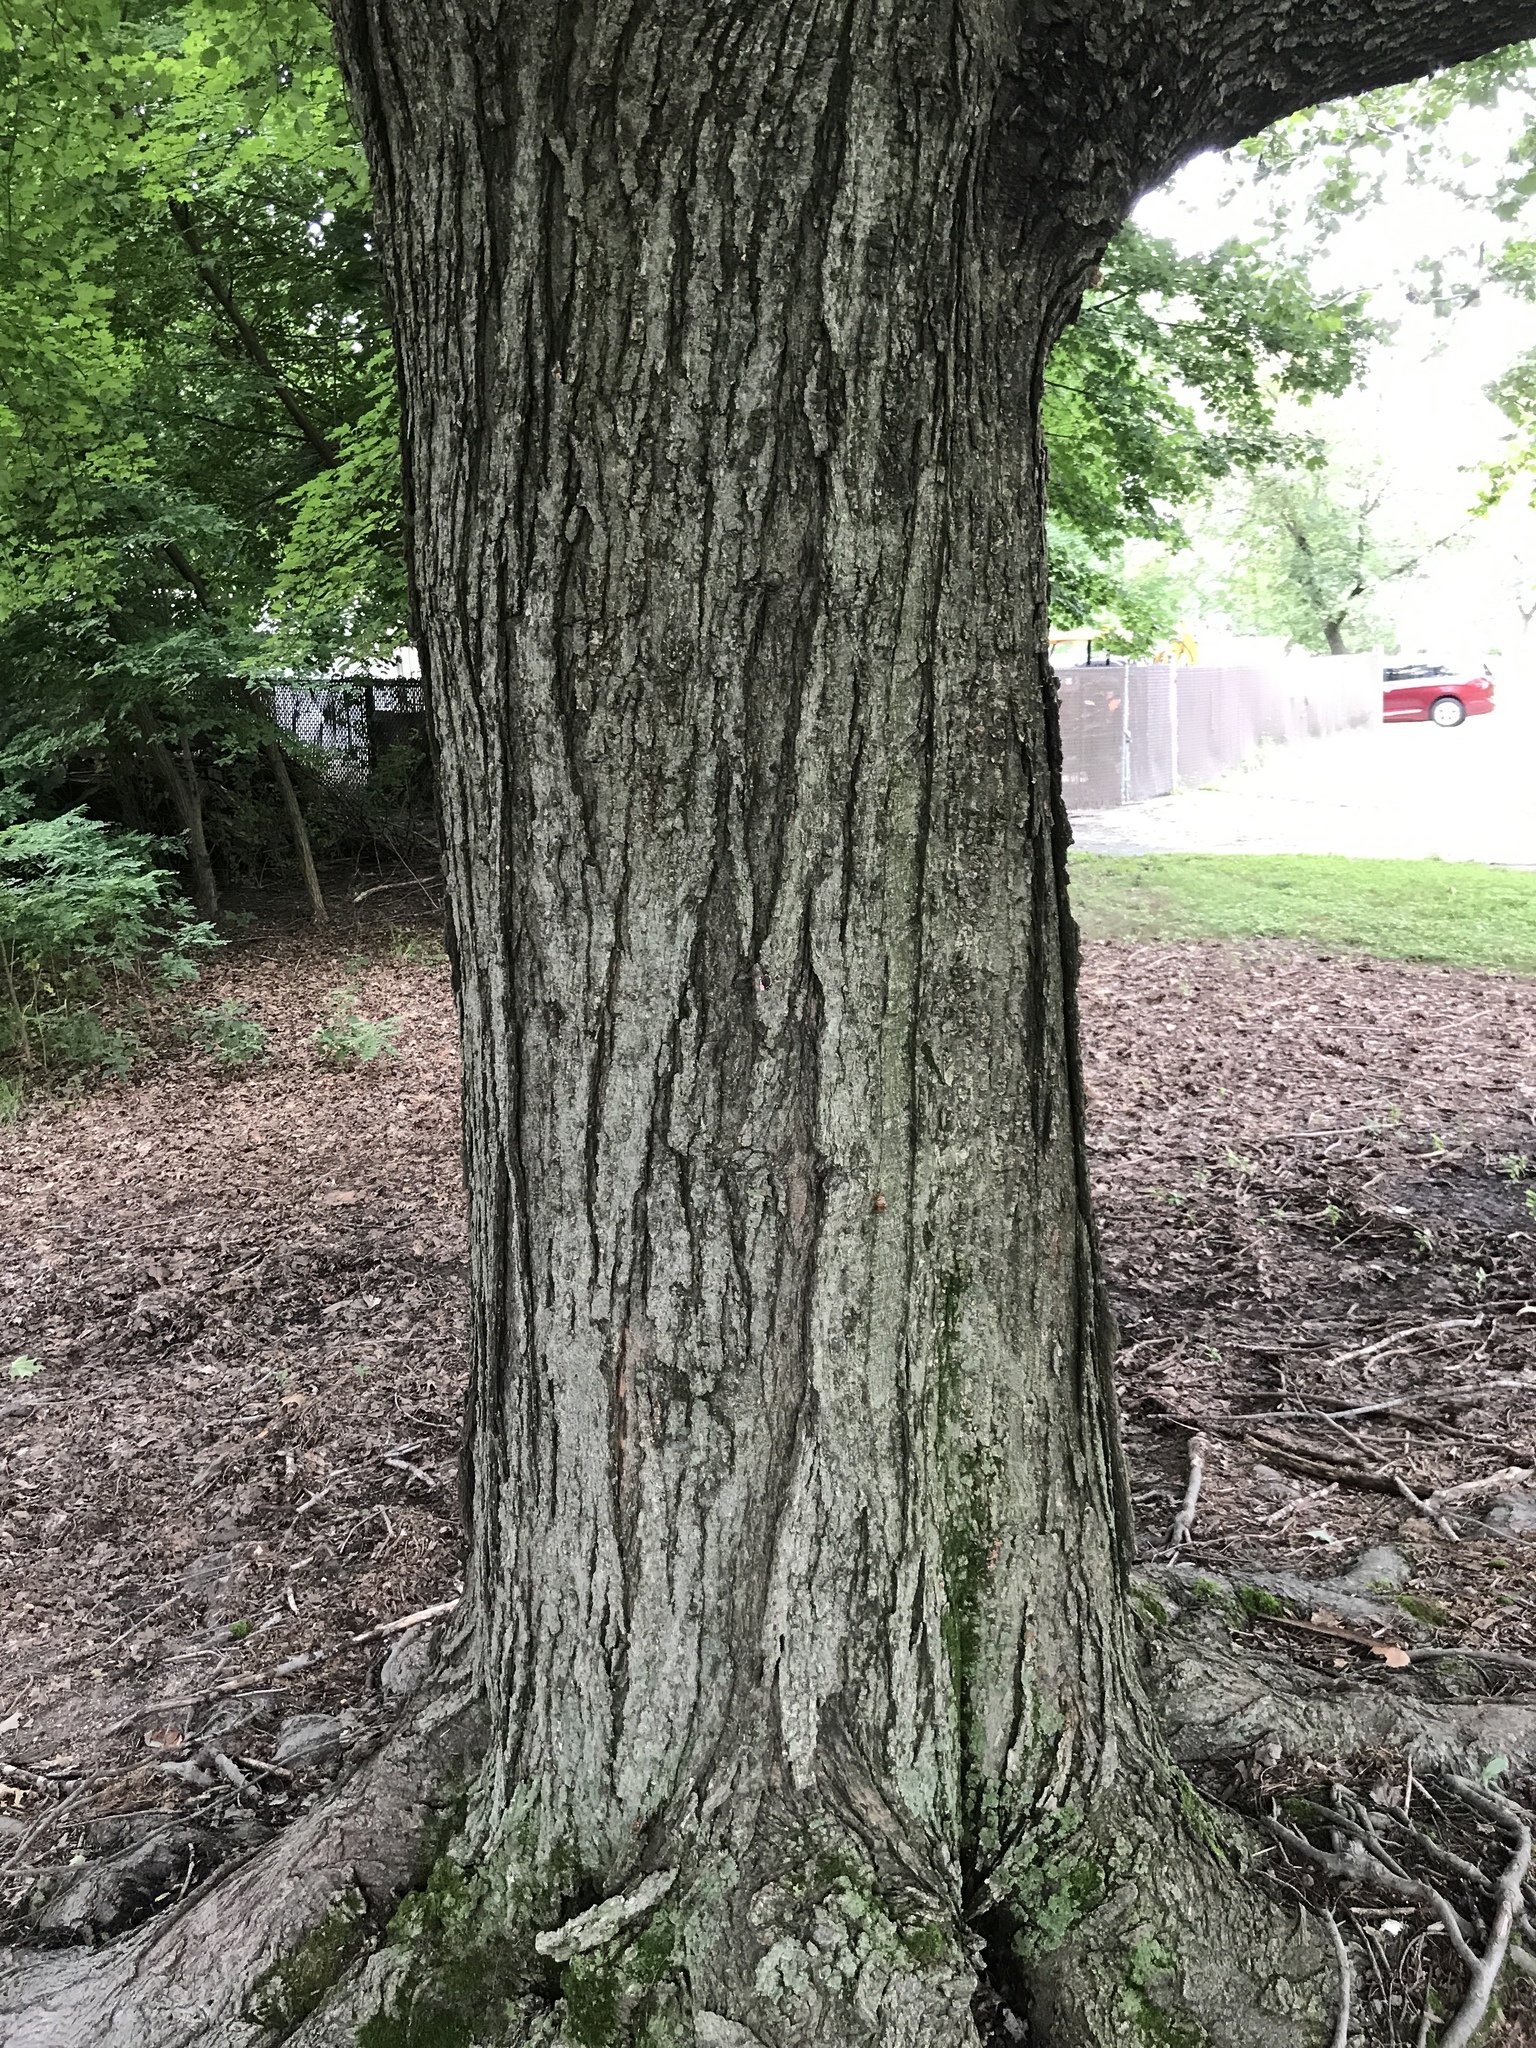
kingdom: Plantae
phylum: Tracheophyta
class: Magnoliopsida
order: Sapindales
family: Sapindaceae
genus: Acer
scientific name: Acer rubrum
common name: Red maple
